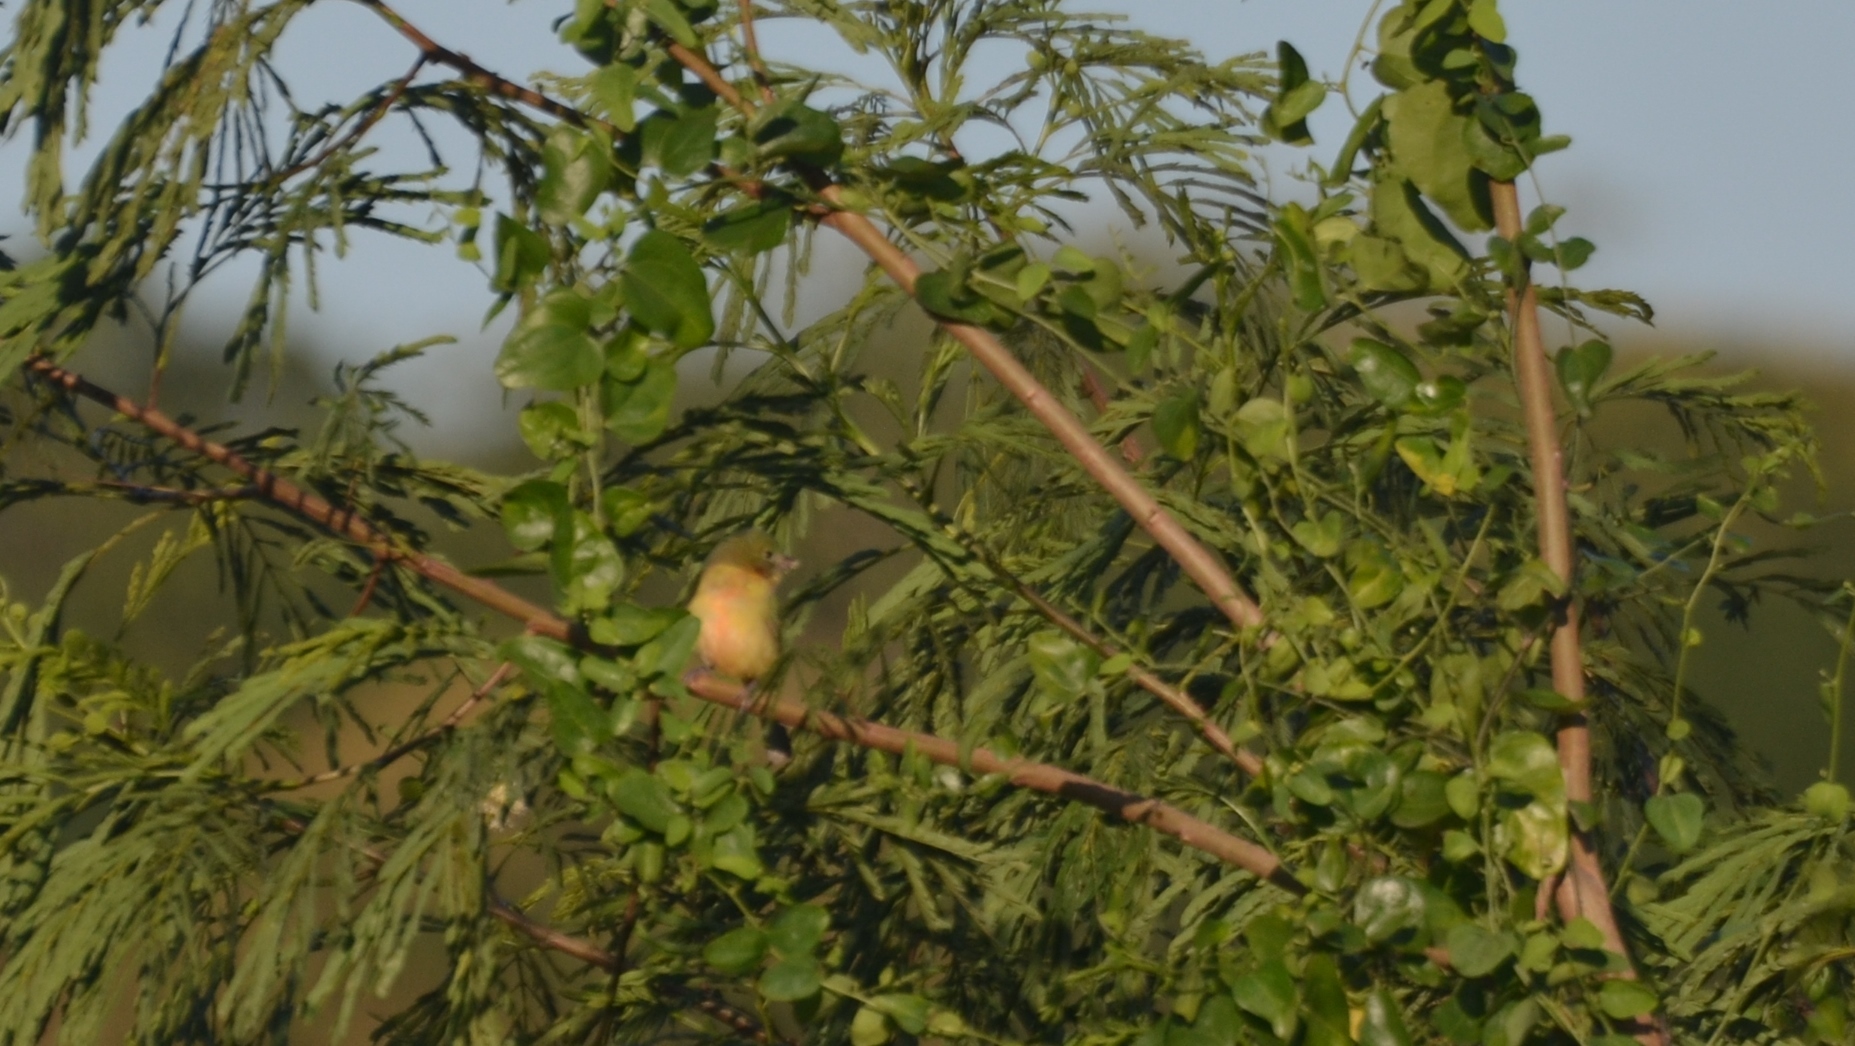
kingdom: Animalia
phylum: Chordata
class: Aves
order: Passeriformes
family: Cardinalidae
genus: Passerina
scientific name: Passerina ciris
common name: Painted bunting
